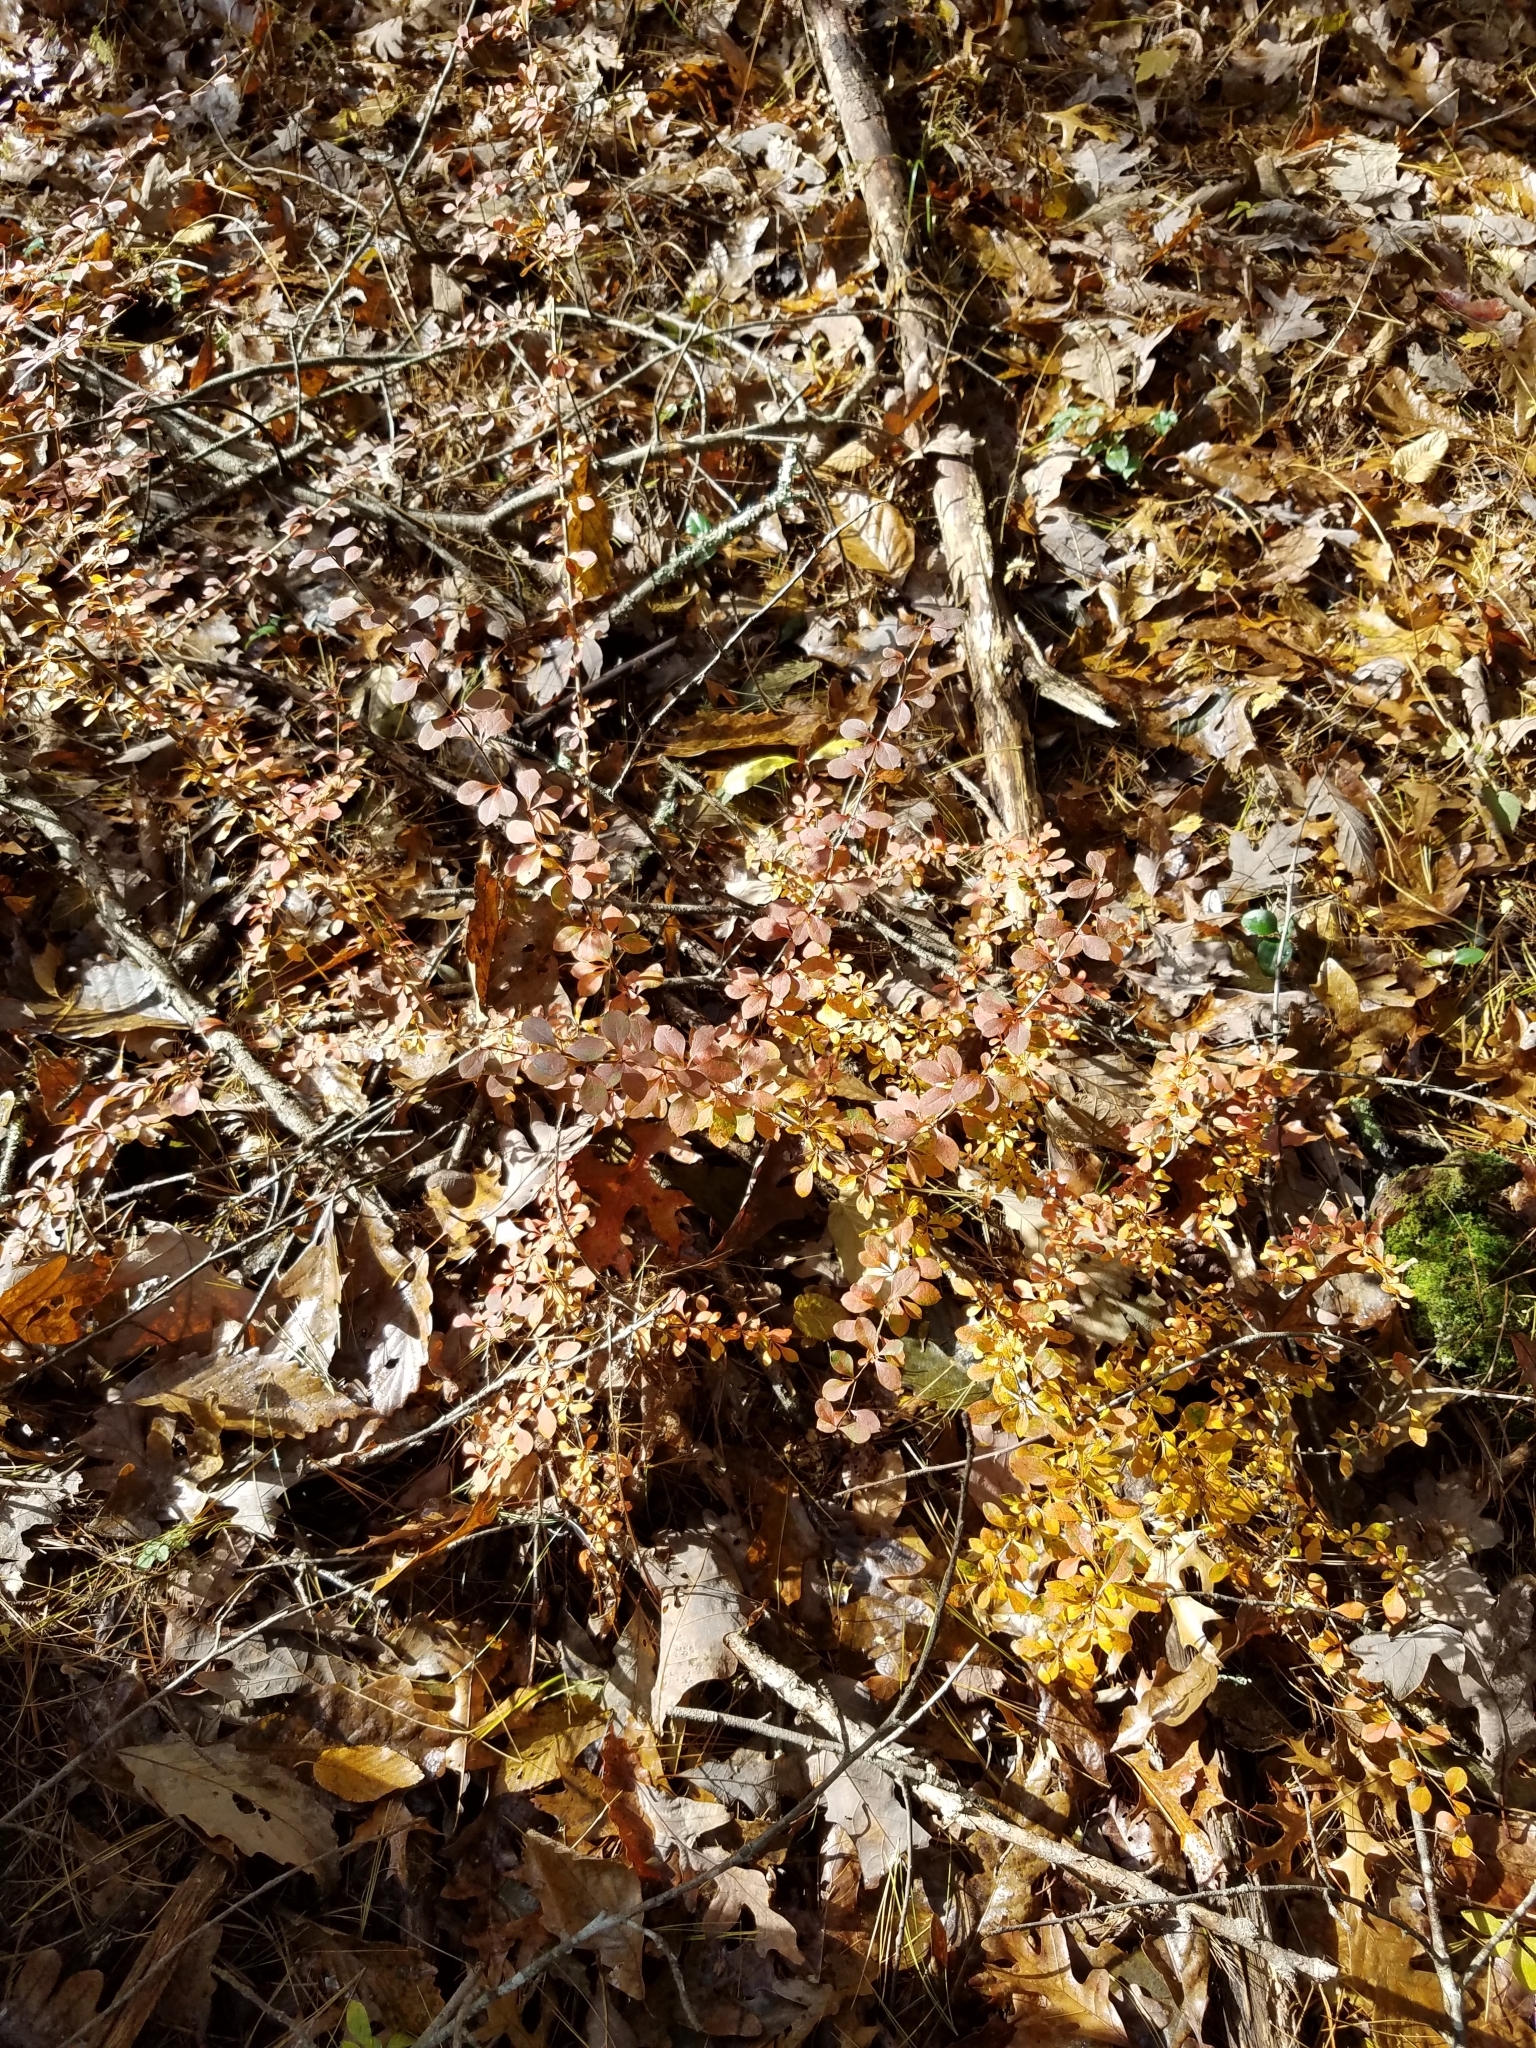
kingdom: Plantae
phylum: Tracheophyta
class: Magnoliopsida
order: Ranunculales
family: Berberidaceae
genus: Berberis
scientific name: Berberis thunbergii
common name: Japanese barberry
